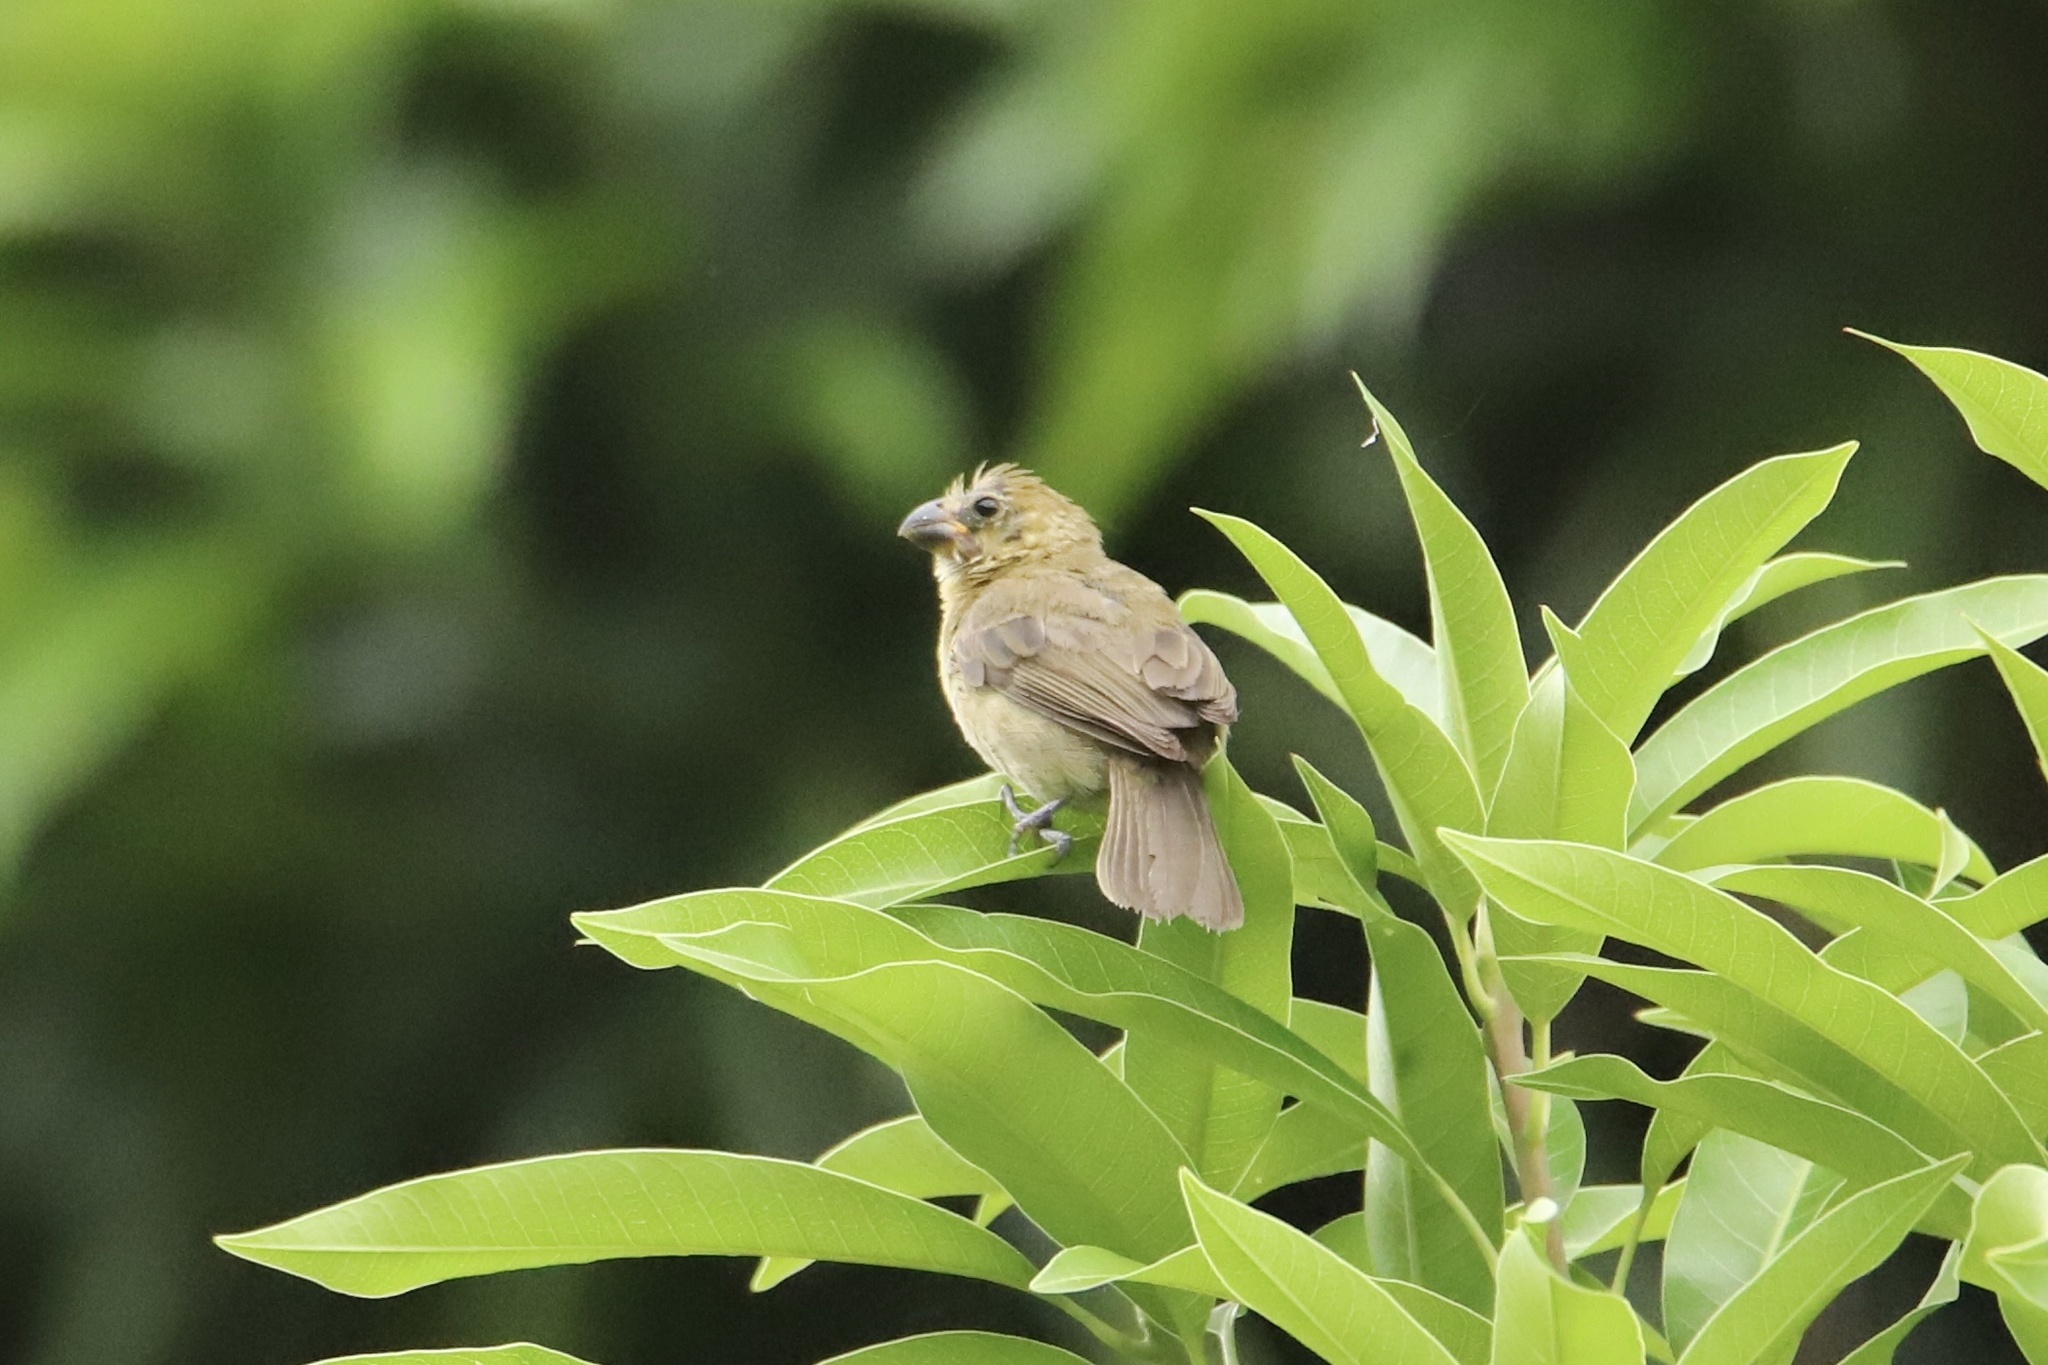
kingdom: Animalia
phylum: Chordata
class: Aves
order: Passeriformes
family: Thraupidae
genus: Sporophila
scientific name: Sporophila corvina
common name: Variable seedeater
